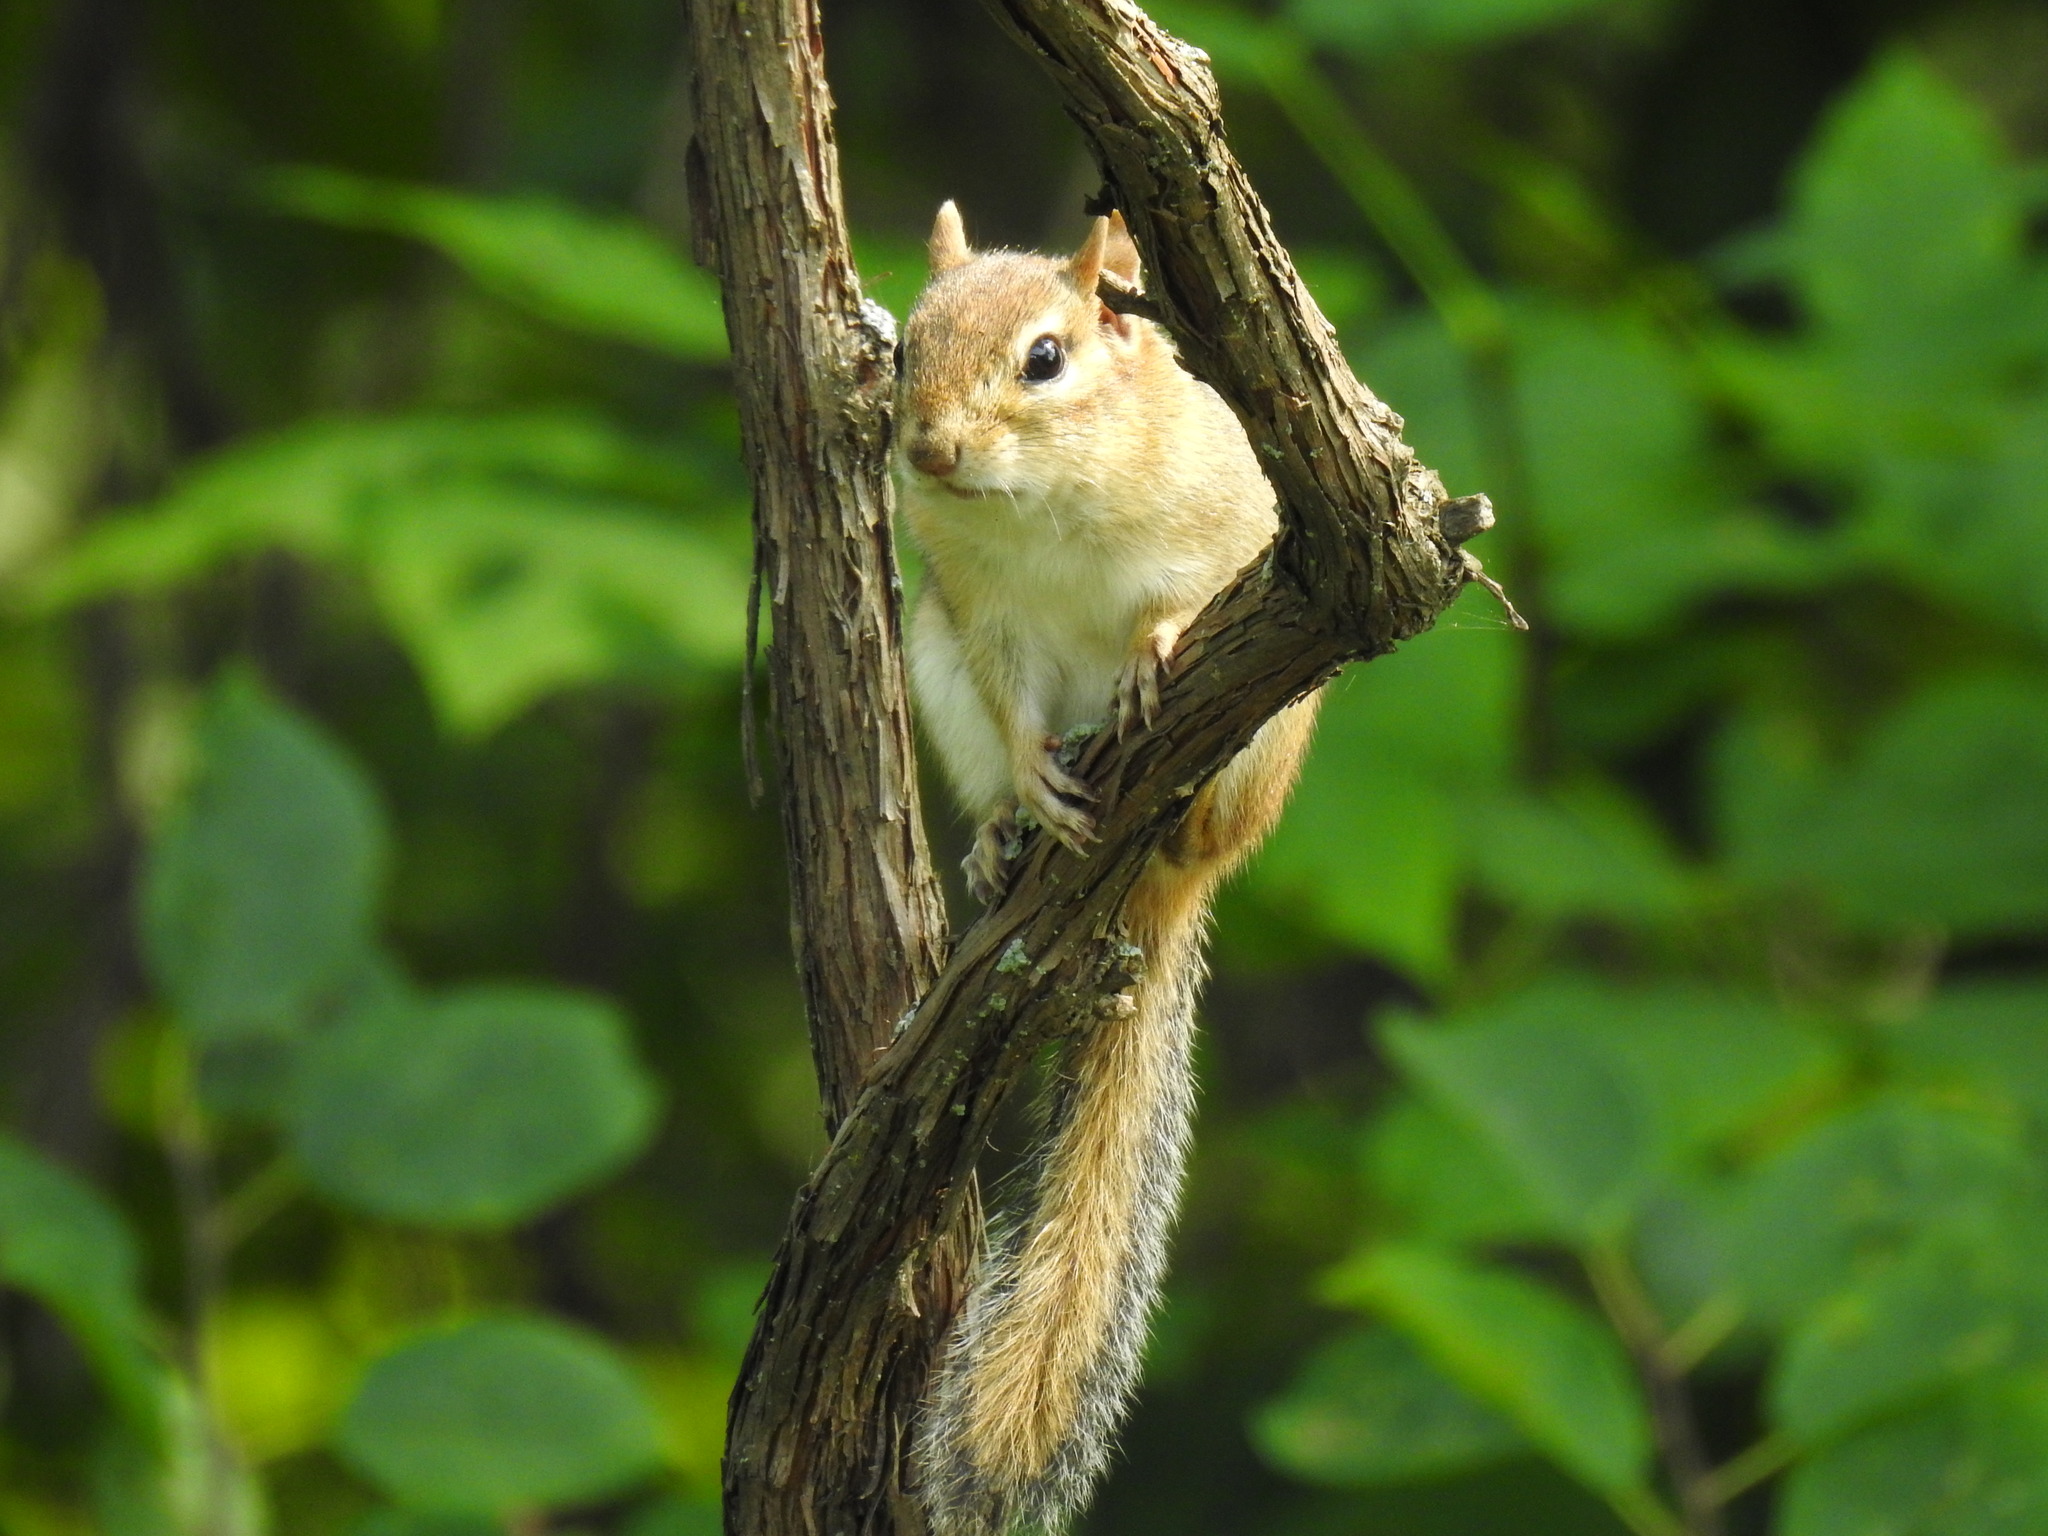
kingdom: Animalia
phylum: Chordata
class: Mammalia
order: Rodentia
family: Sciuridae
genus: Tamias
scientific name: Tamias striatus
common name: Eastern chipmunk
